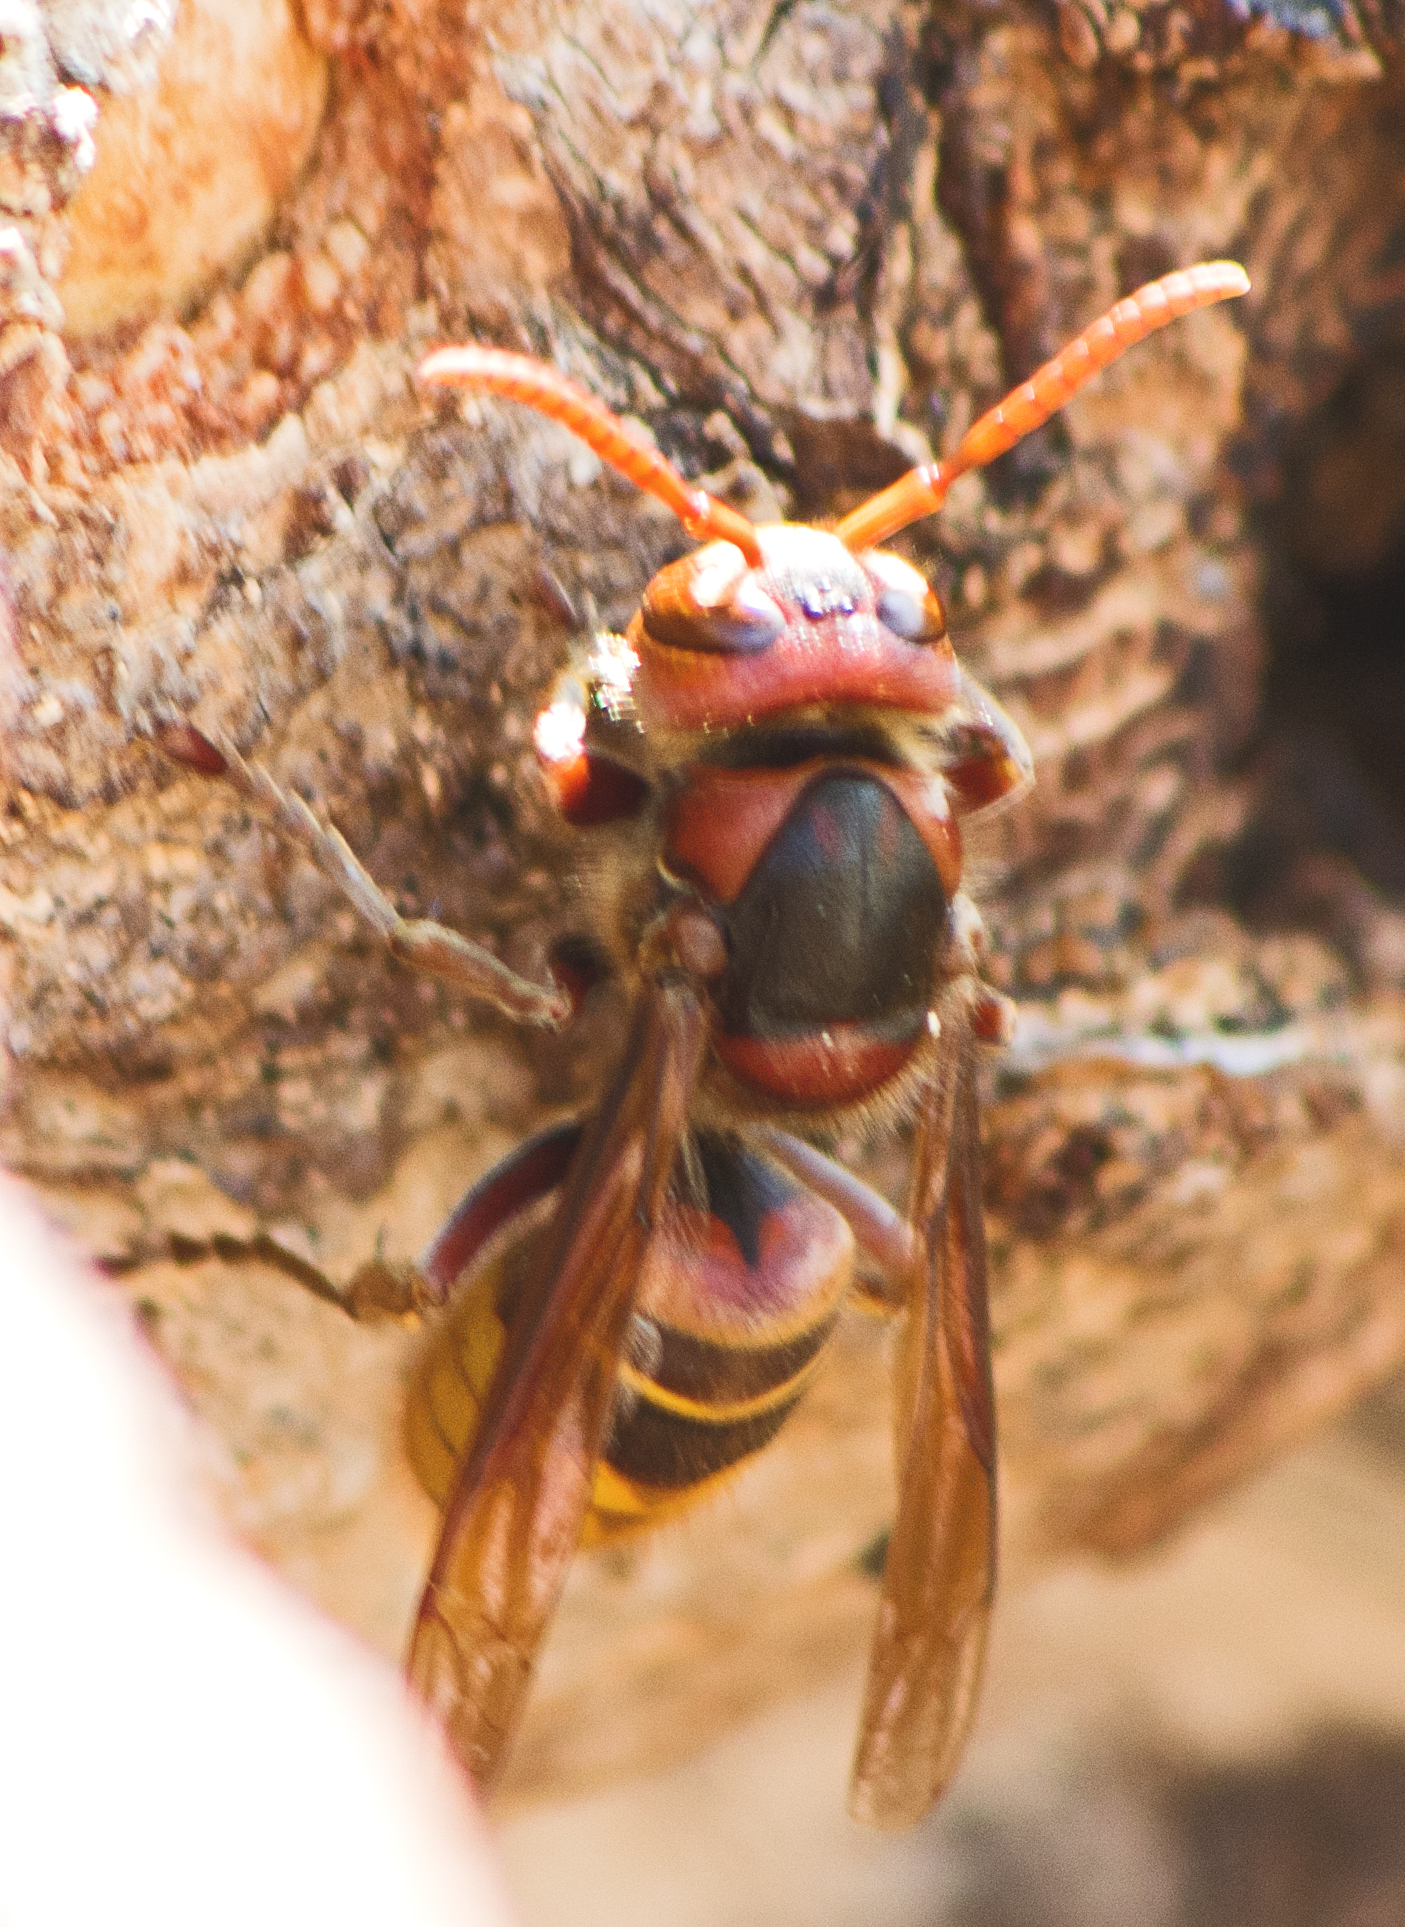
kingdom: Animalia
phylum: Arthropoda
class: Insecta
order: Hymenoptera
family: Vespidae
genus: Vespa
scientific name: Vespa crabro
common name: Hornet
